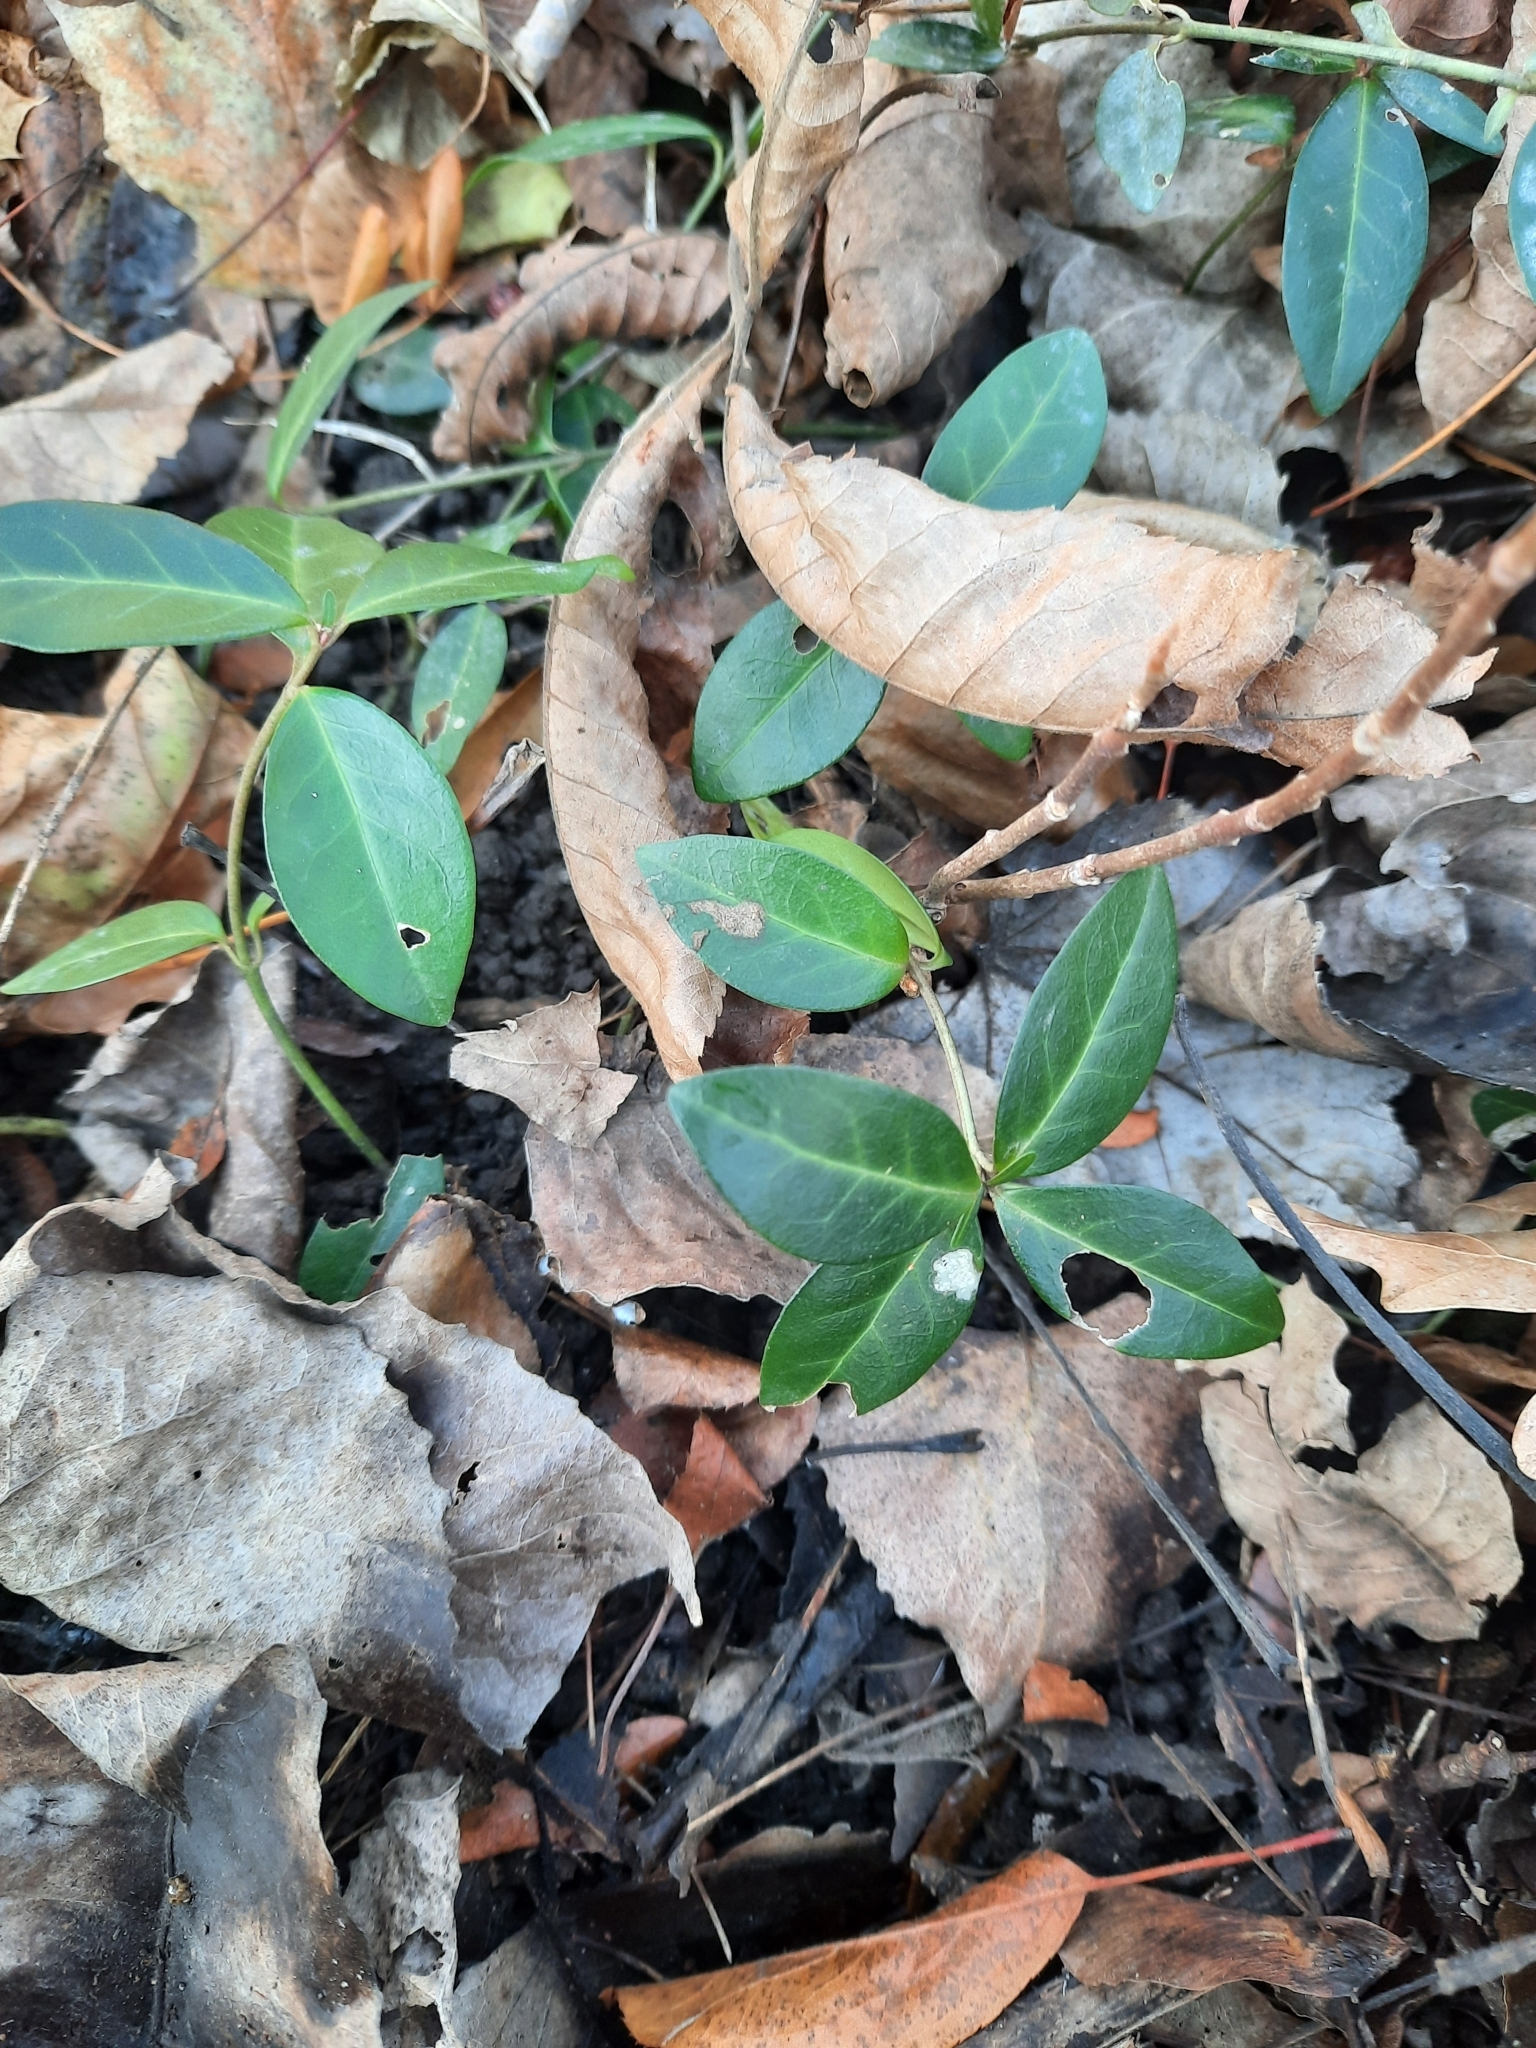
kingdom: Plantae
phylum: Tracheophyta
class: Magnoliopsida
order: Gentianales
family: Apocynaceae
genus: Vinca
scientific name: Vinca minor
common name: Lesser periwinkle
